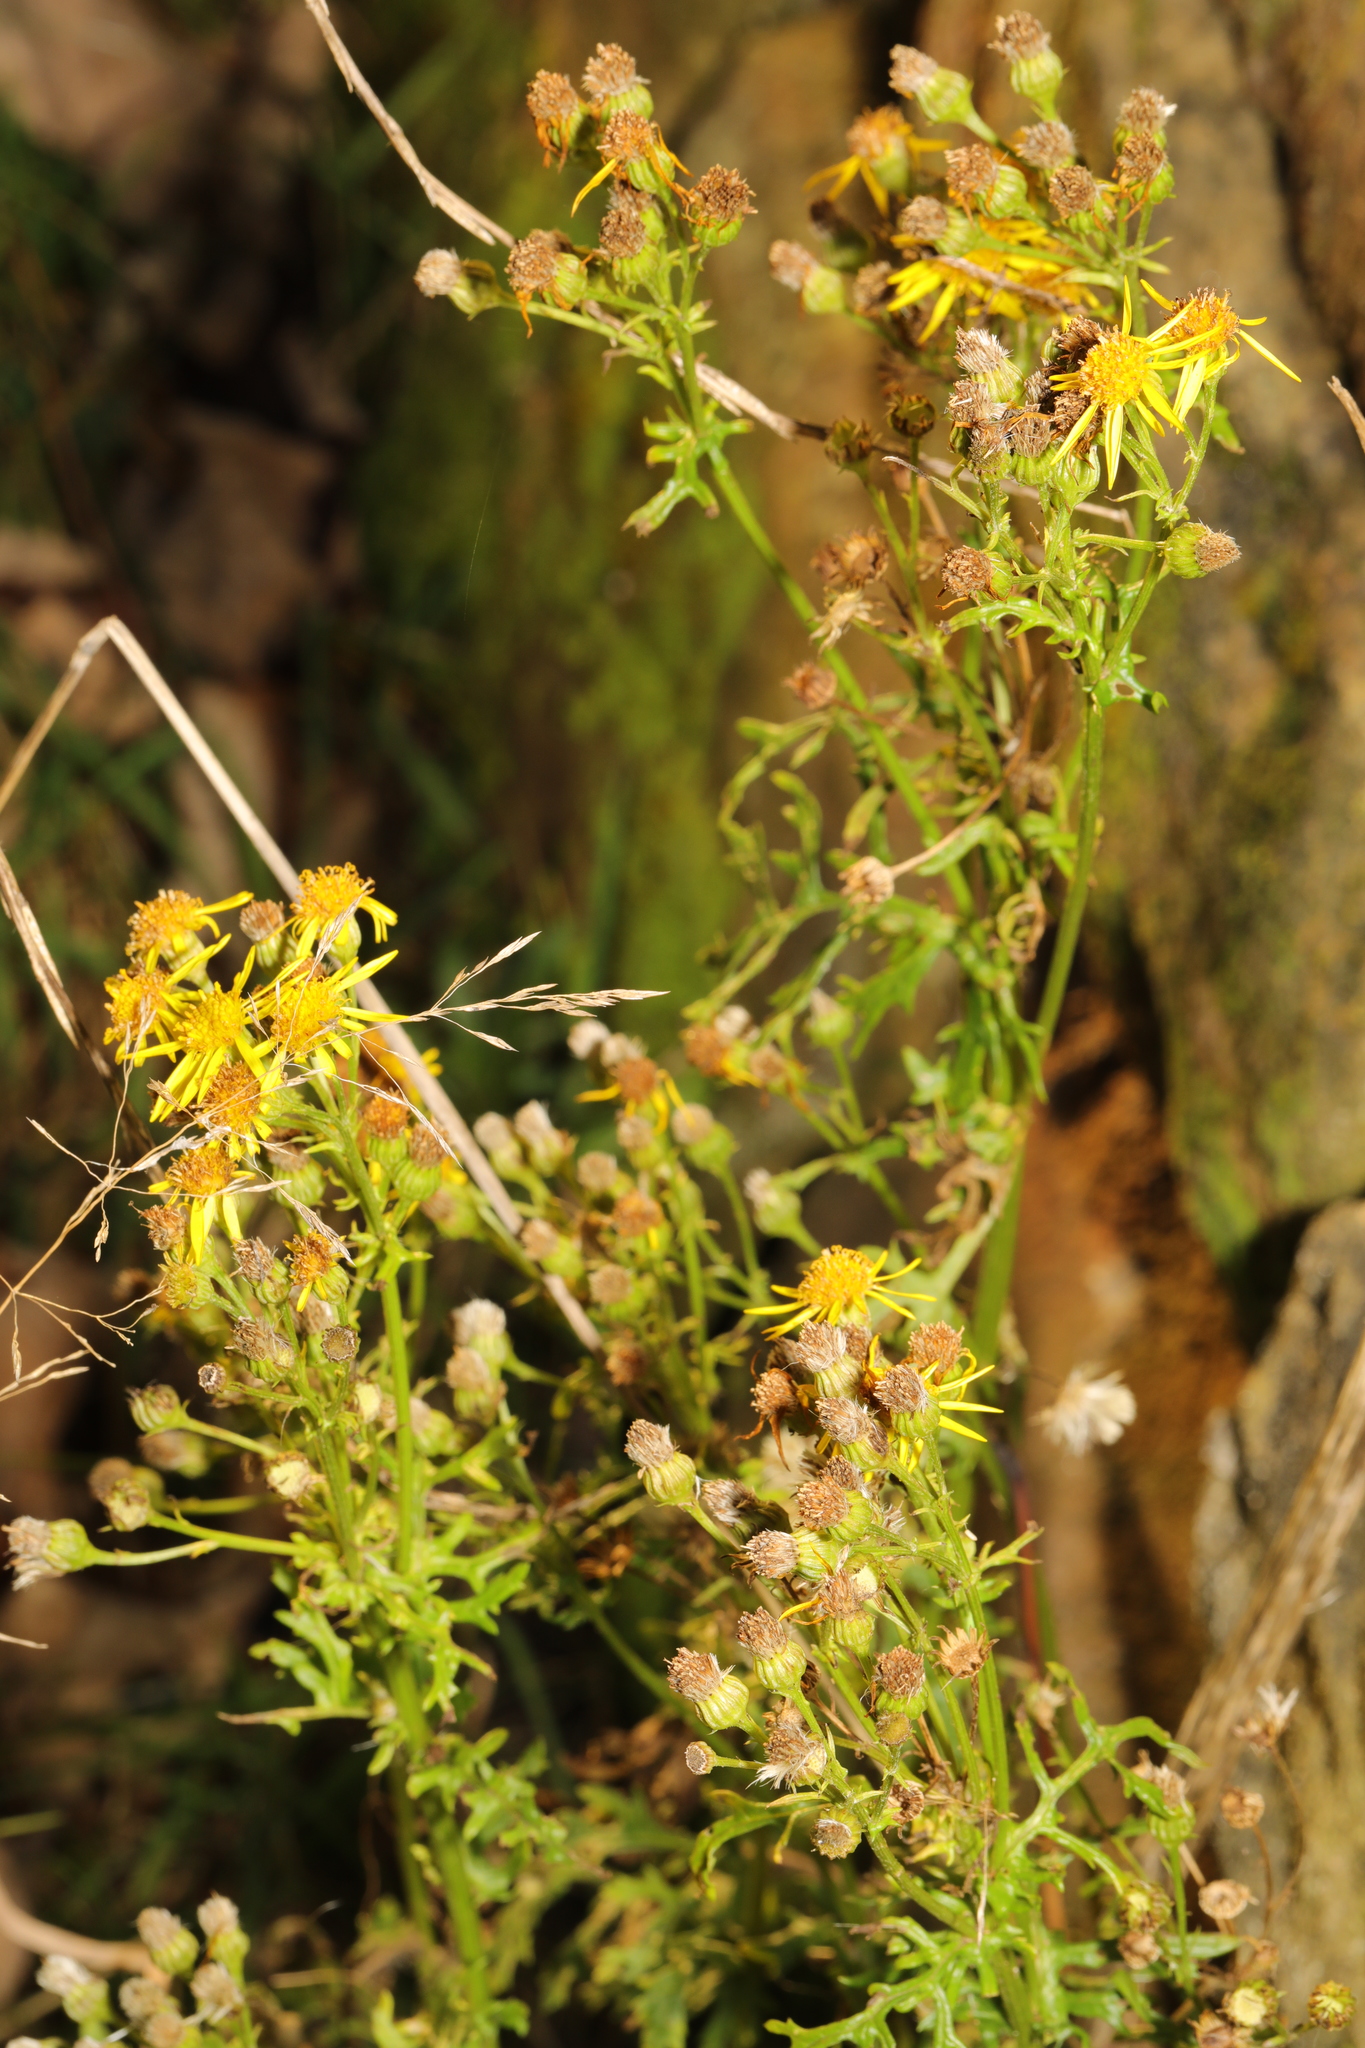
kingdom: Plantae
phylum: Tracheophyta
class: Magnoliopsida
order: Asterales
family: Asteraceae
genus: Jacobaea
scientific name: Jacobaea vulgaris
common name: Stinking willie
